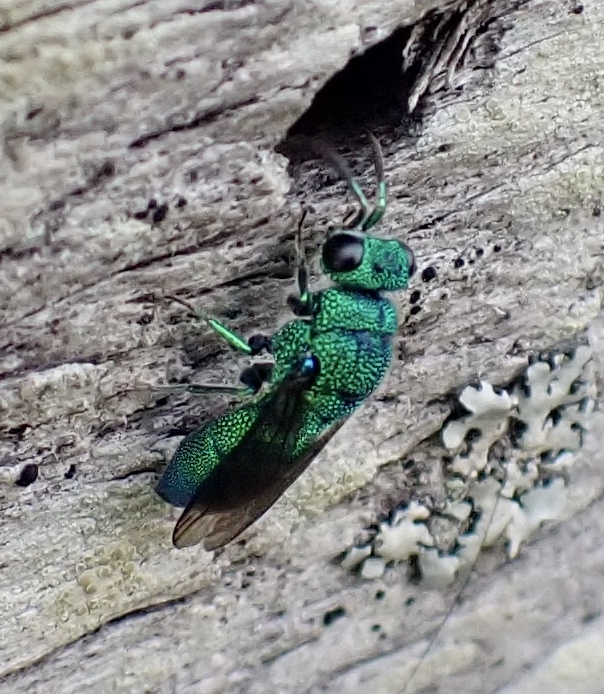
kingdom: Animalia
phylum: Arthropoda
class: Insecta
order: Hymenoptera
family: Chrysididae
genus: Caenochrysis
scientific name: Caenochrysis
